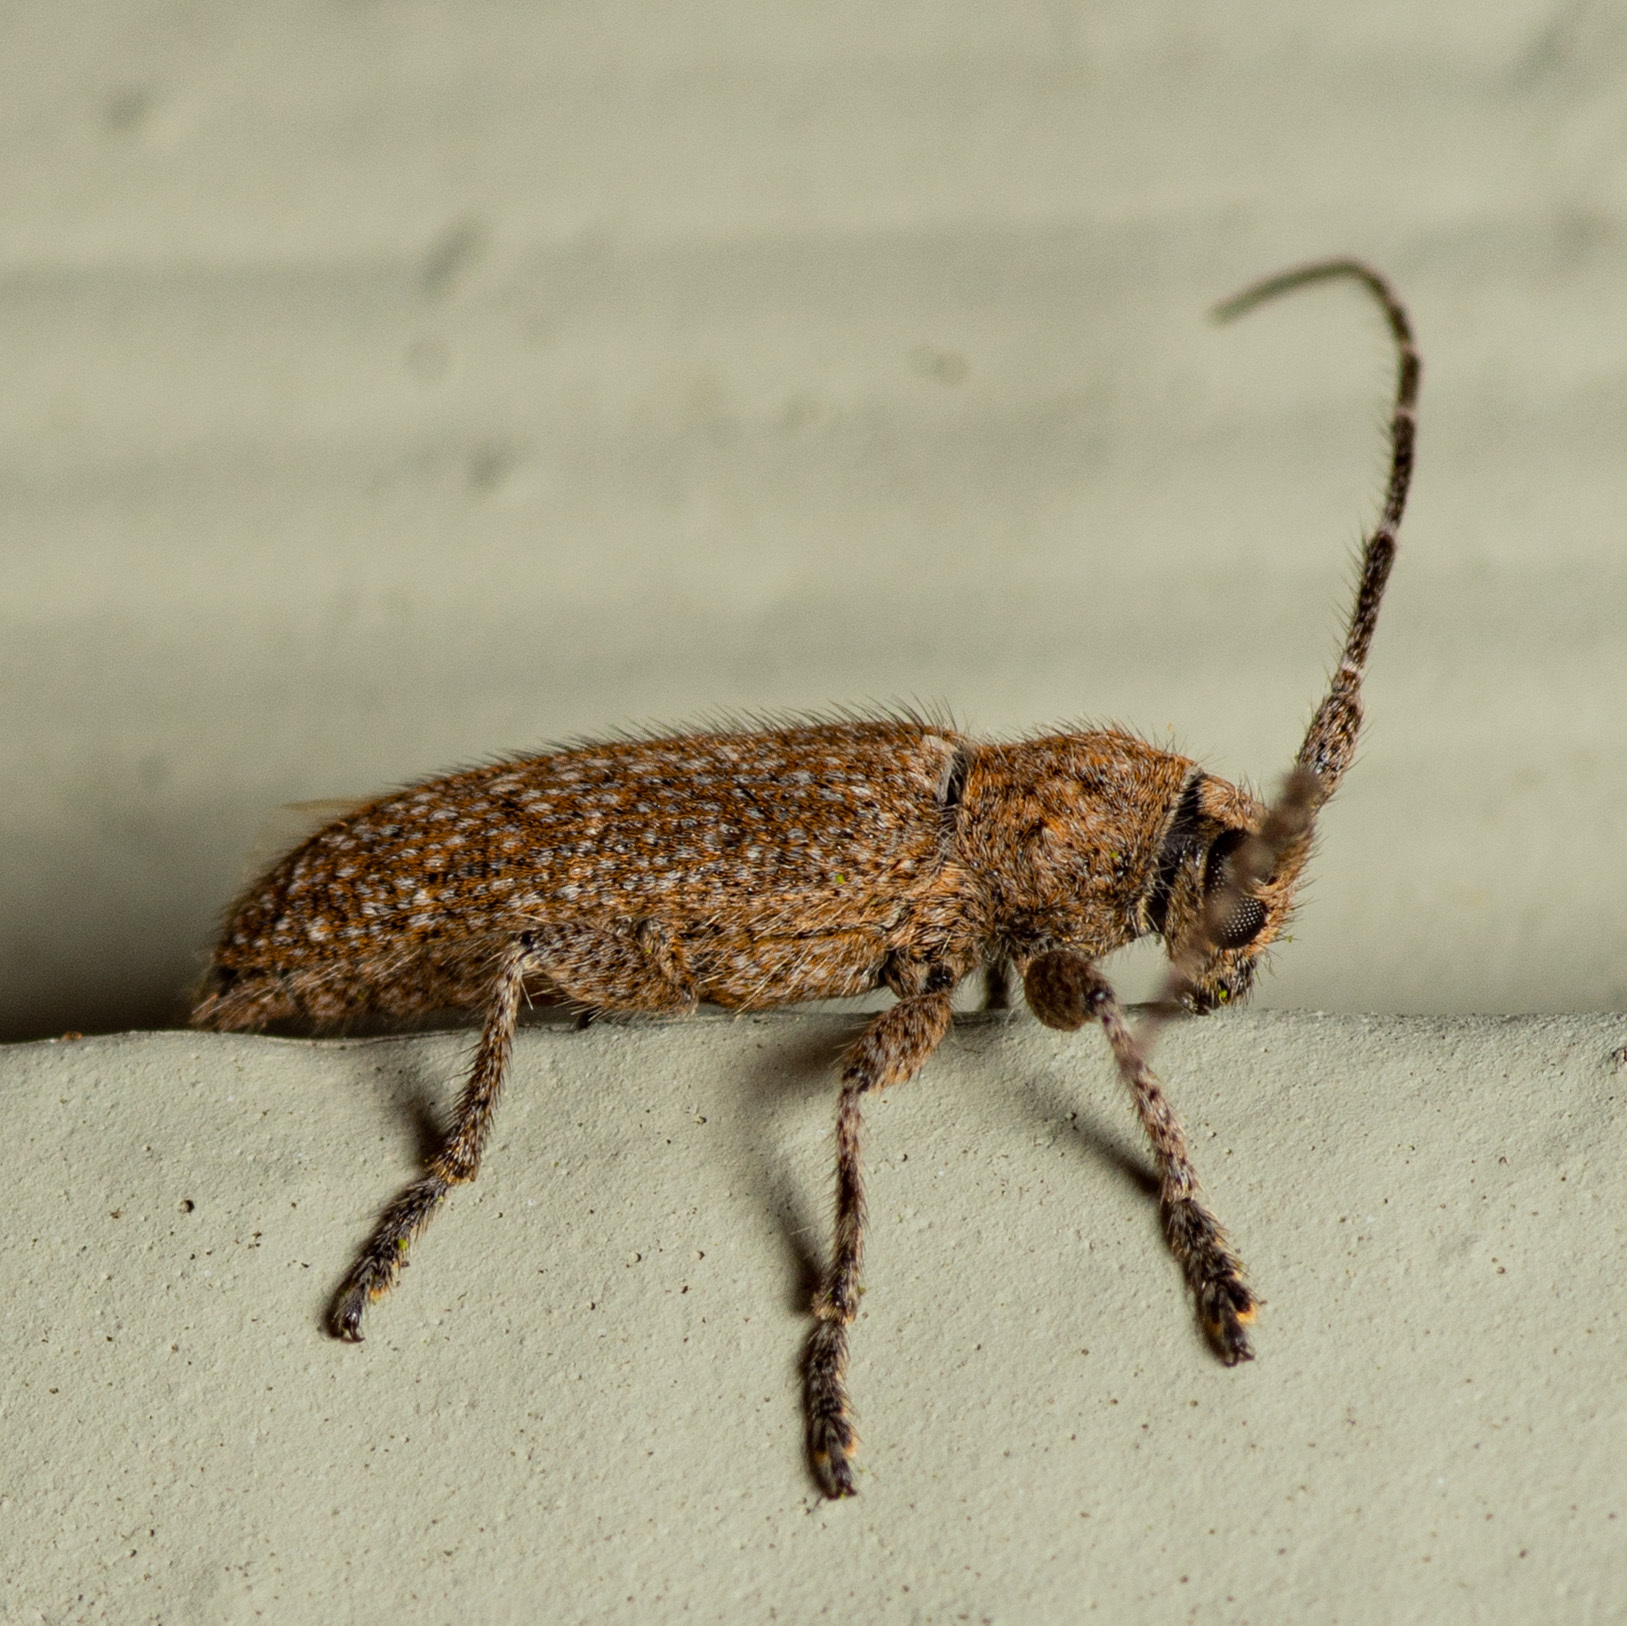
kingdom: Animalia
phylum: Arthropoda
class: Insecta
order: Coleoptera
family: Cerambycidae
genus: Ataxia
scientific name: Ataxia hubbardi
